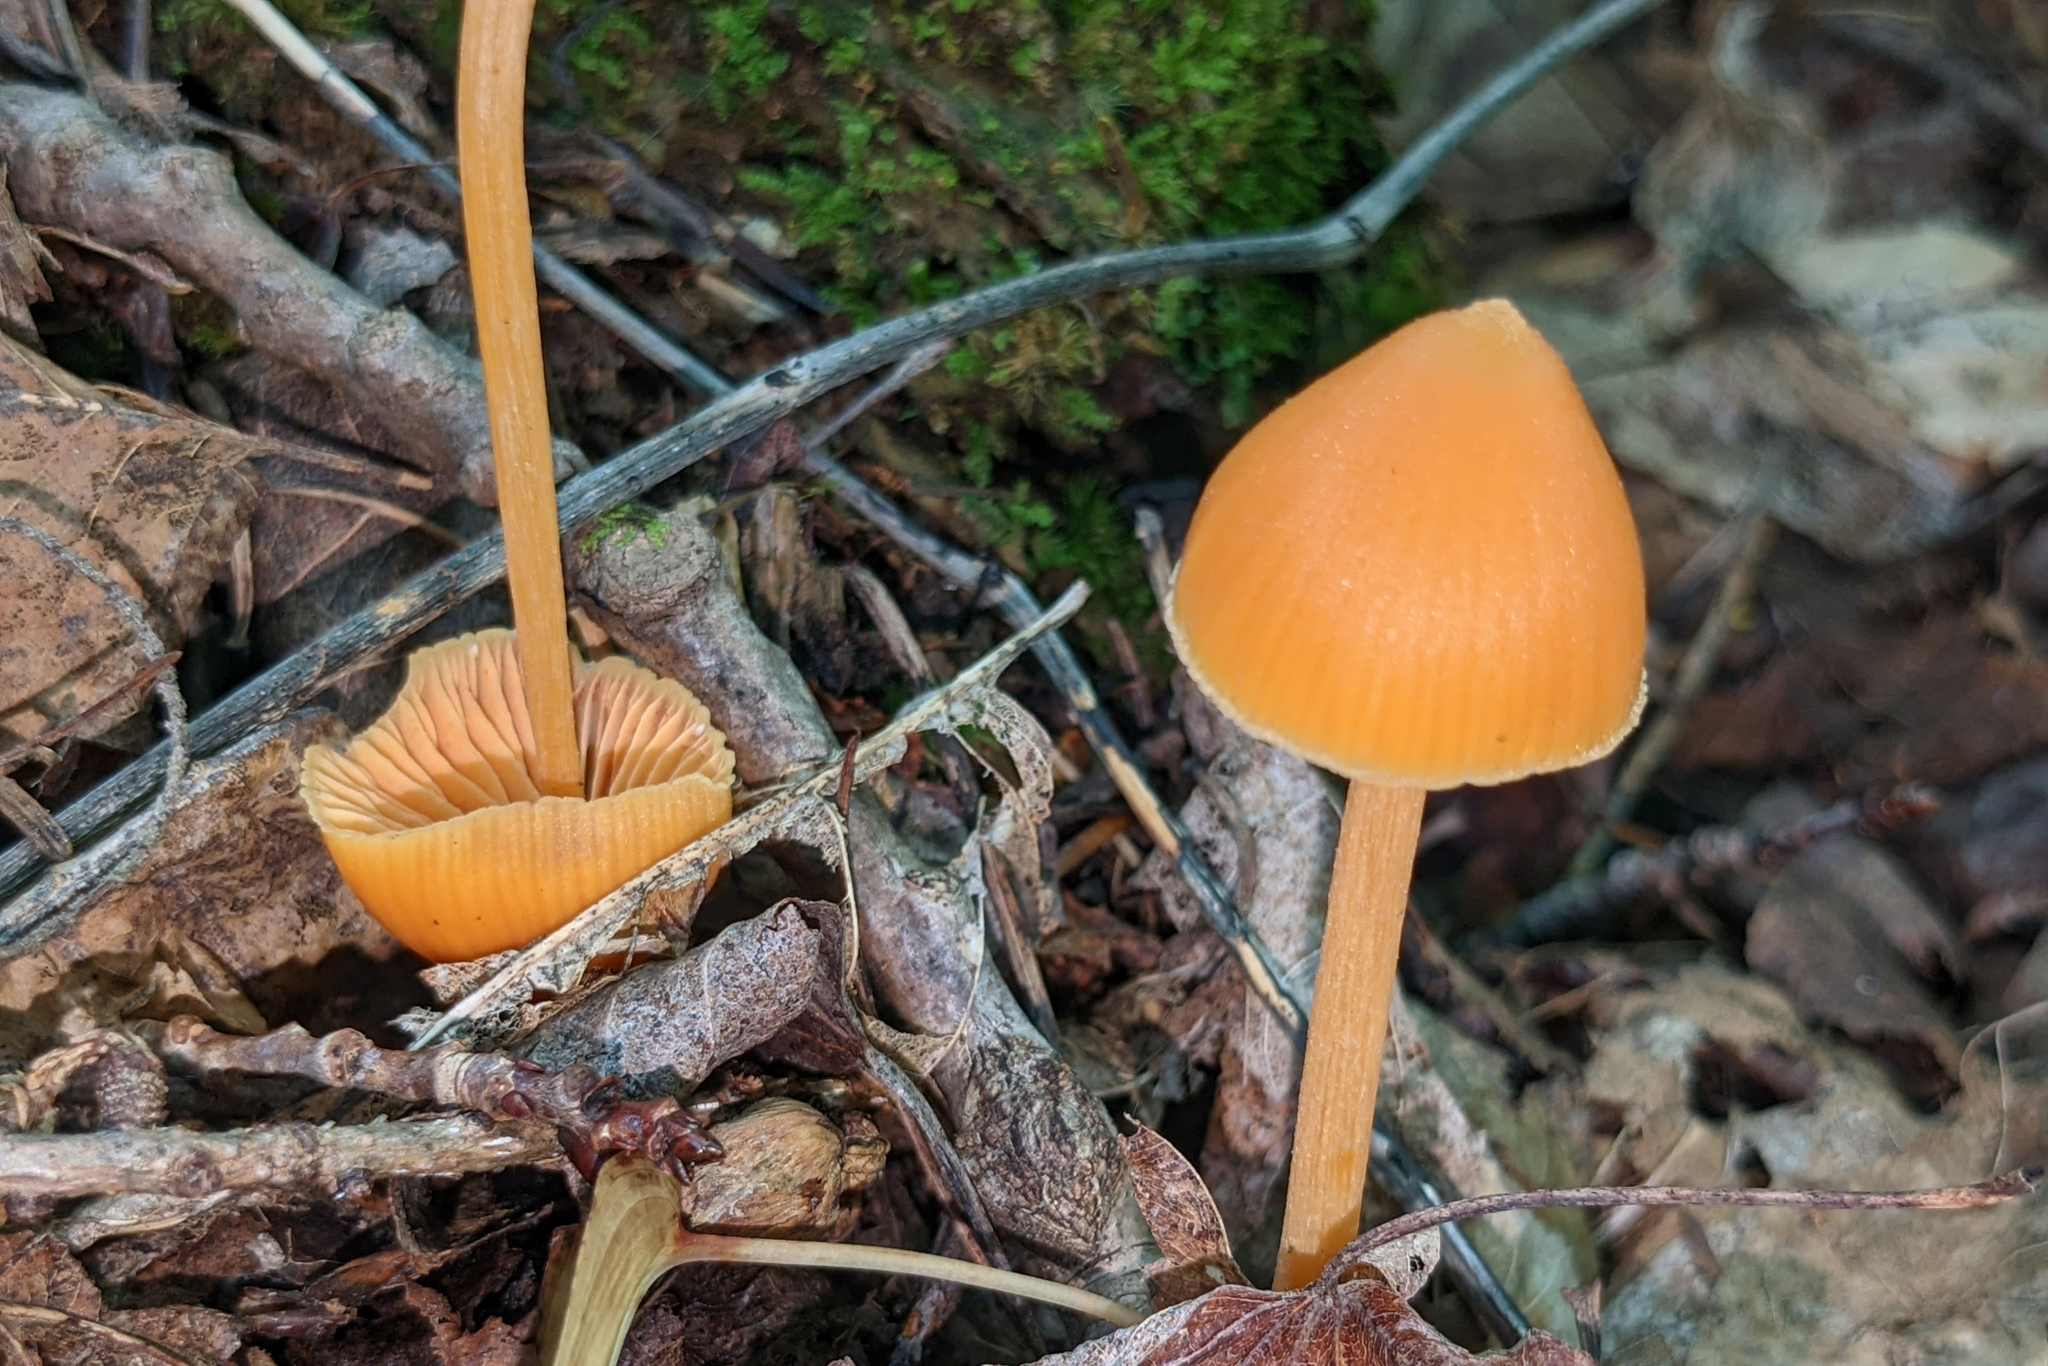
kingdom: Fungi
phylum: Basidiomycota
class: Agaricomycetes
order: Agaricales
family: Entolomataceae
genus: Entoloma
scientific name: Entoloma quadratum
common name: Salmon pinkgill
